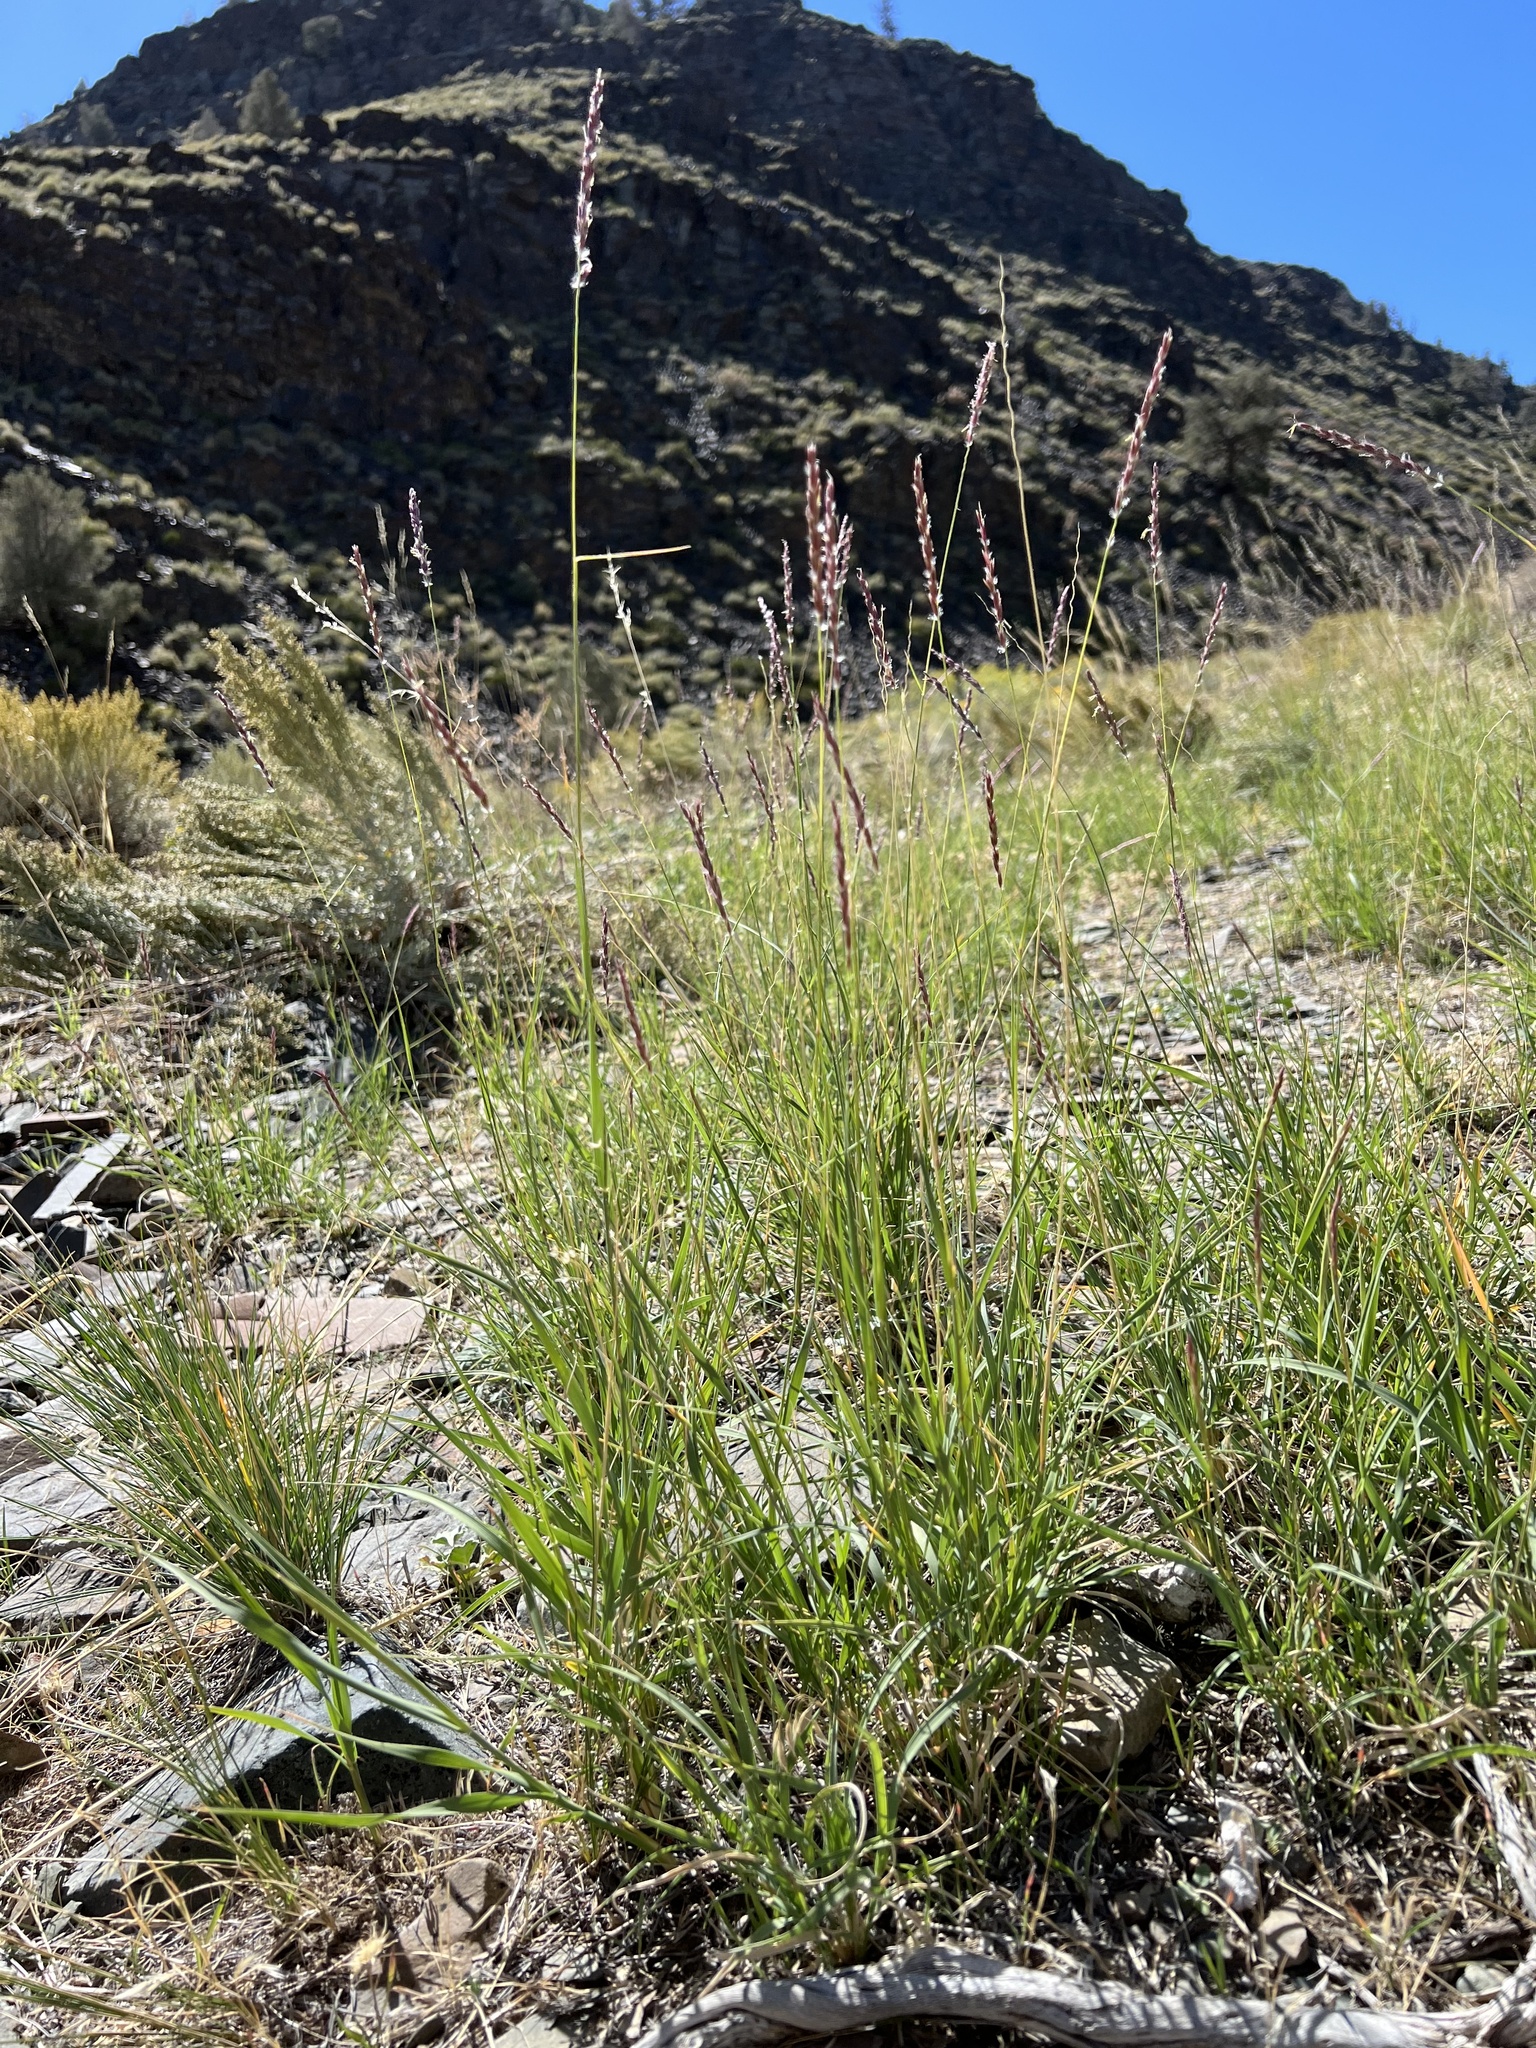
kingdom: Plantae
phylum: Tracheophyta
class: Liliopsida
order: Poales
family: Poaceae
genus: Hilaria
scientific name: Hilaria jamesii
